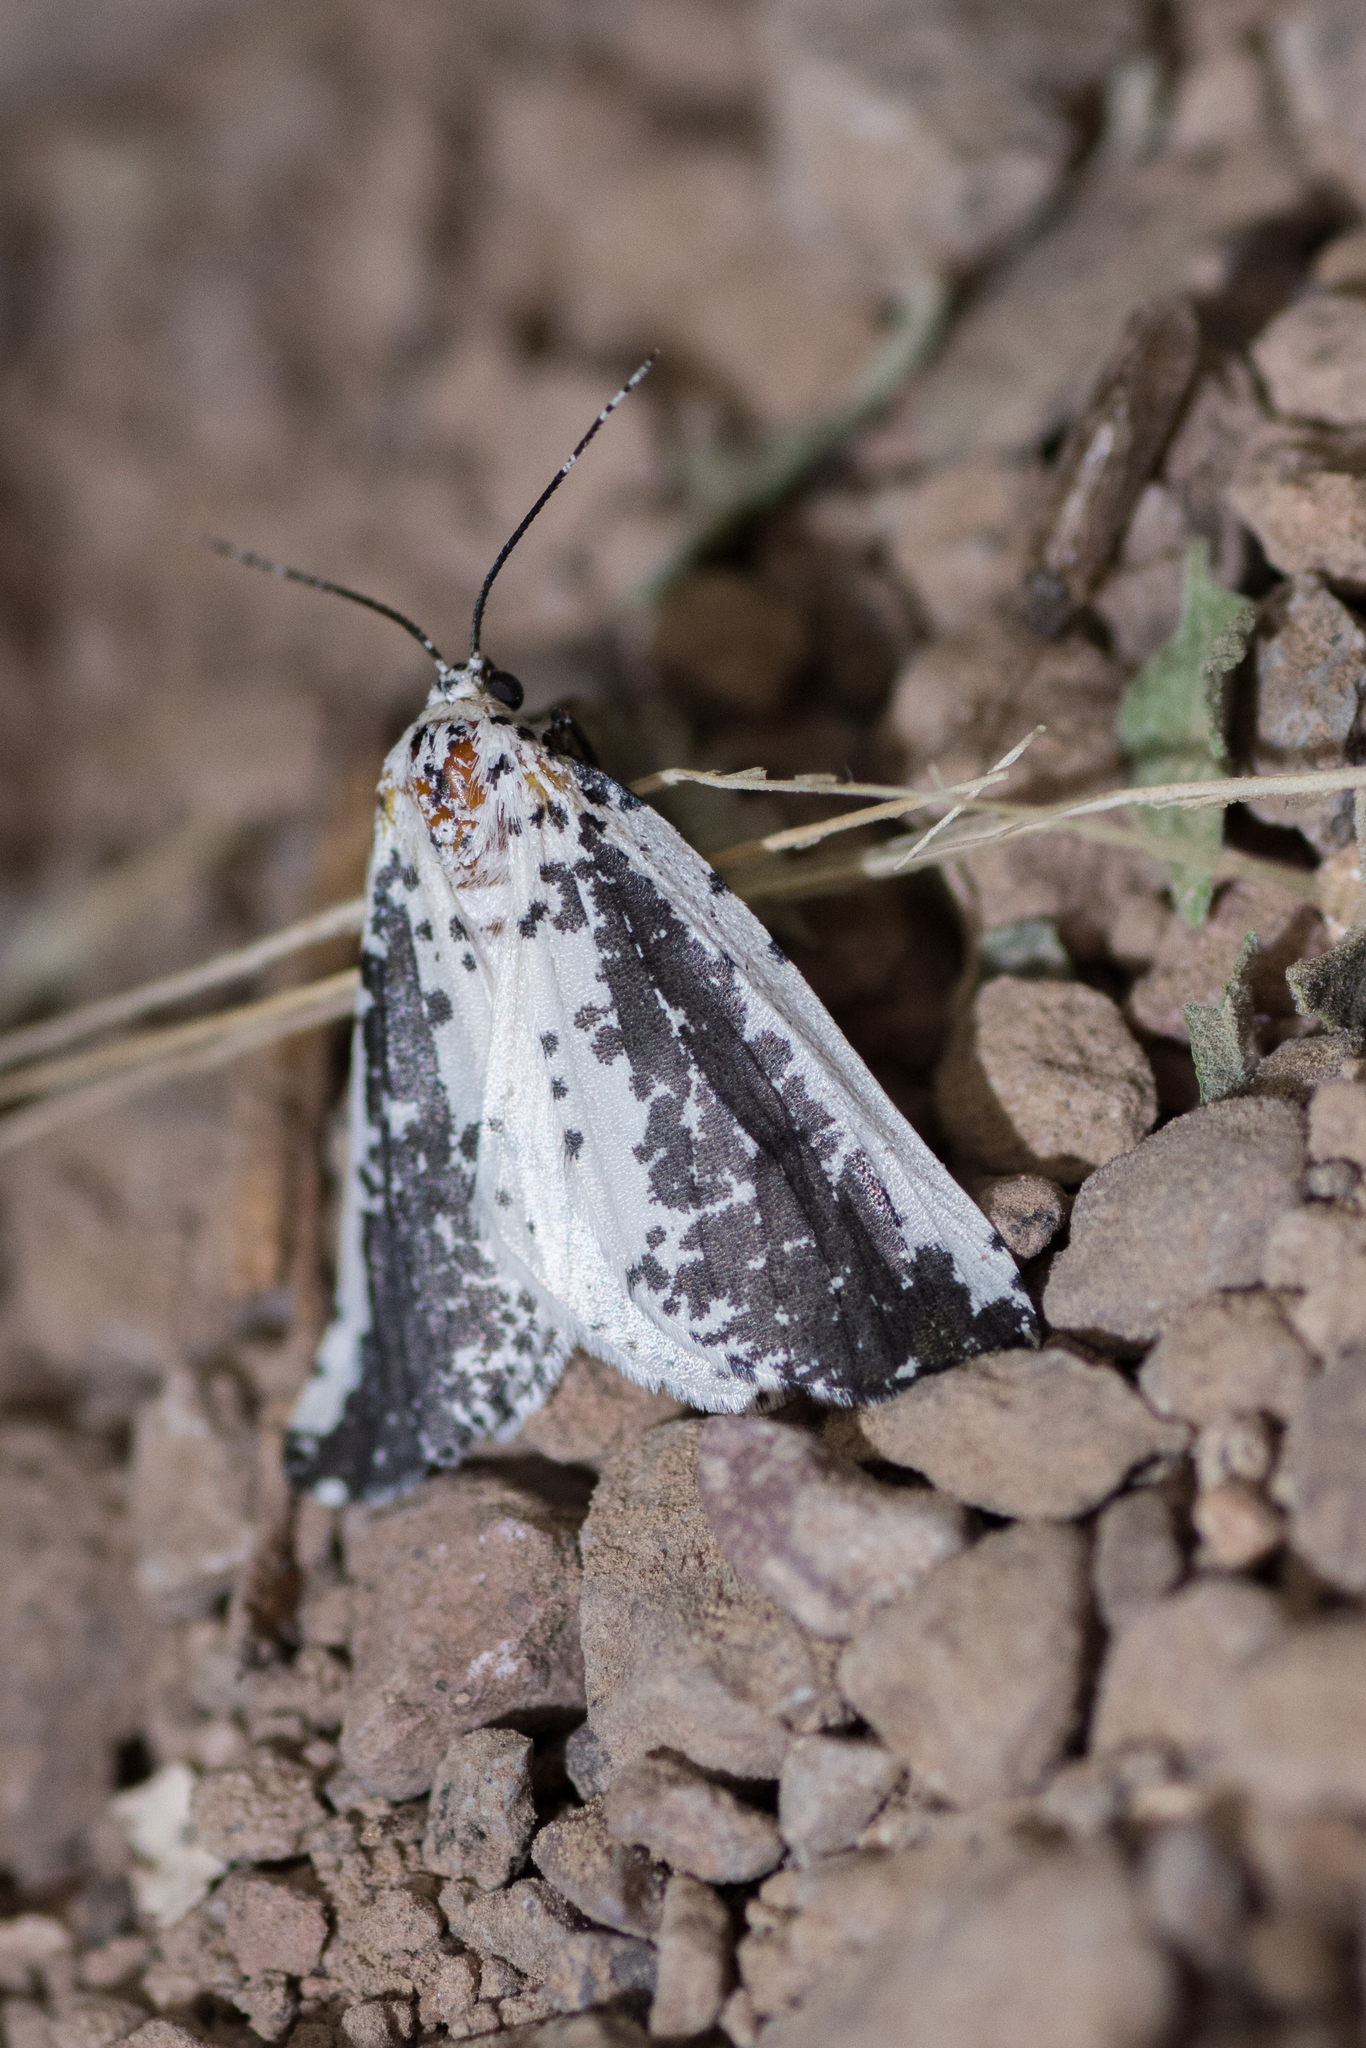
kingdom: Animalia
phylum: Arthropoda
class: Insecta
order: Lepidoptera
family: Geometridae
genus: Eucaterva
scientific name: Eucaterva variaria
